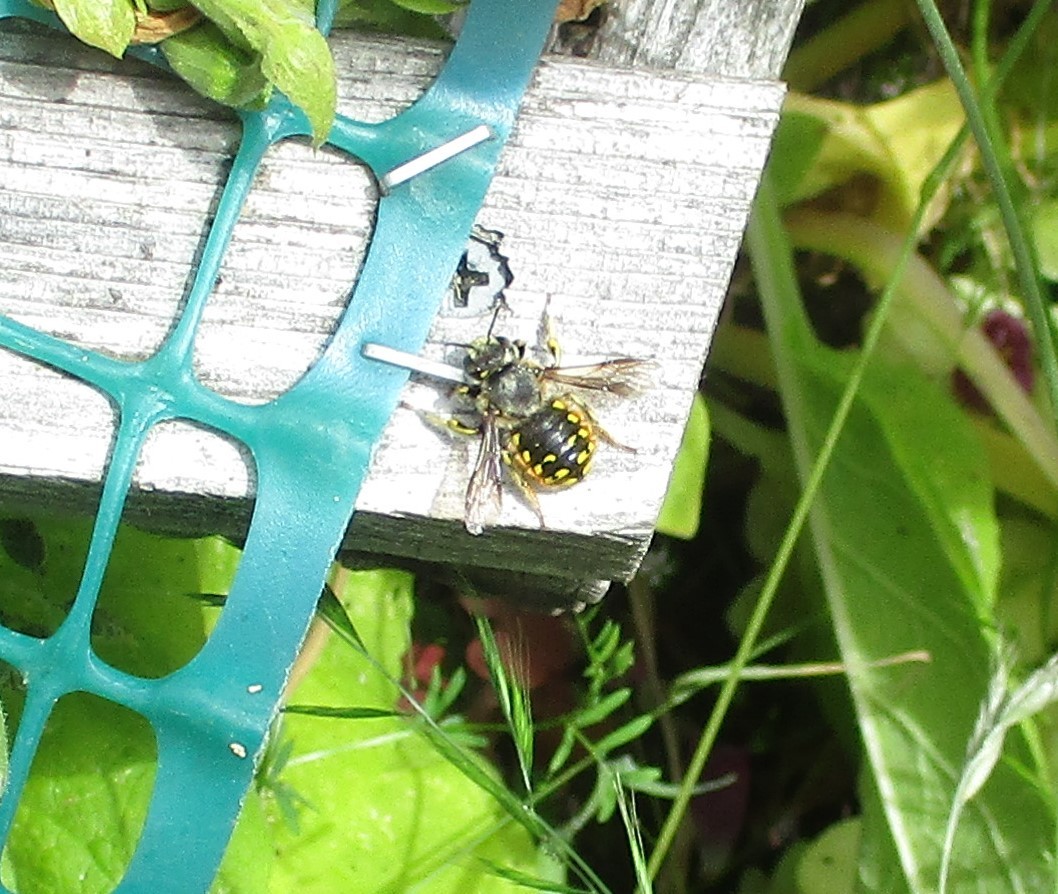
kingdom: Animalia
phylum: Arthropoda
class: Insecta
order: Hymenoptera
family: Megachilidae
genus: Anthidium
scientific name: Anthidium manicatum
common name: Wool carder bee
